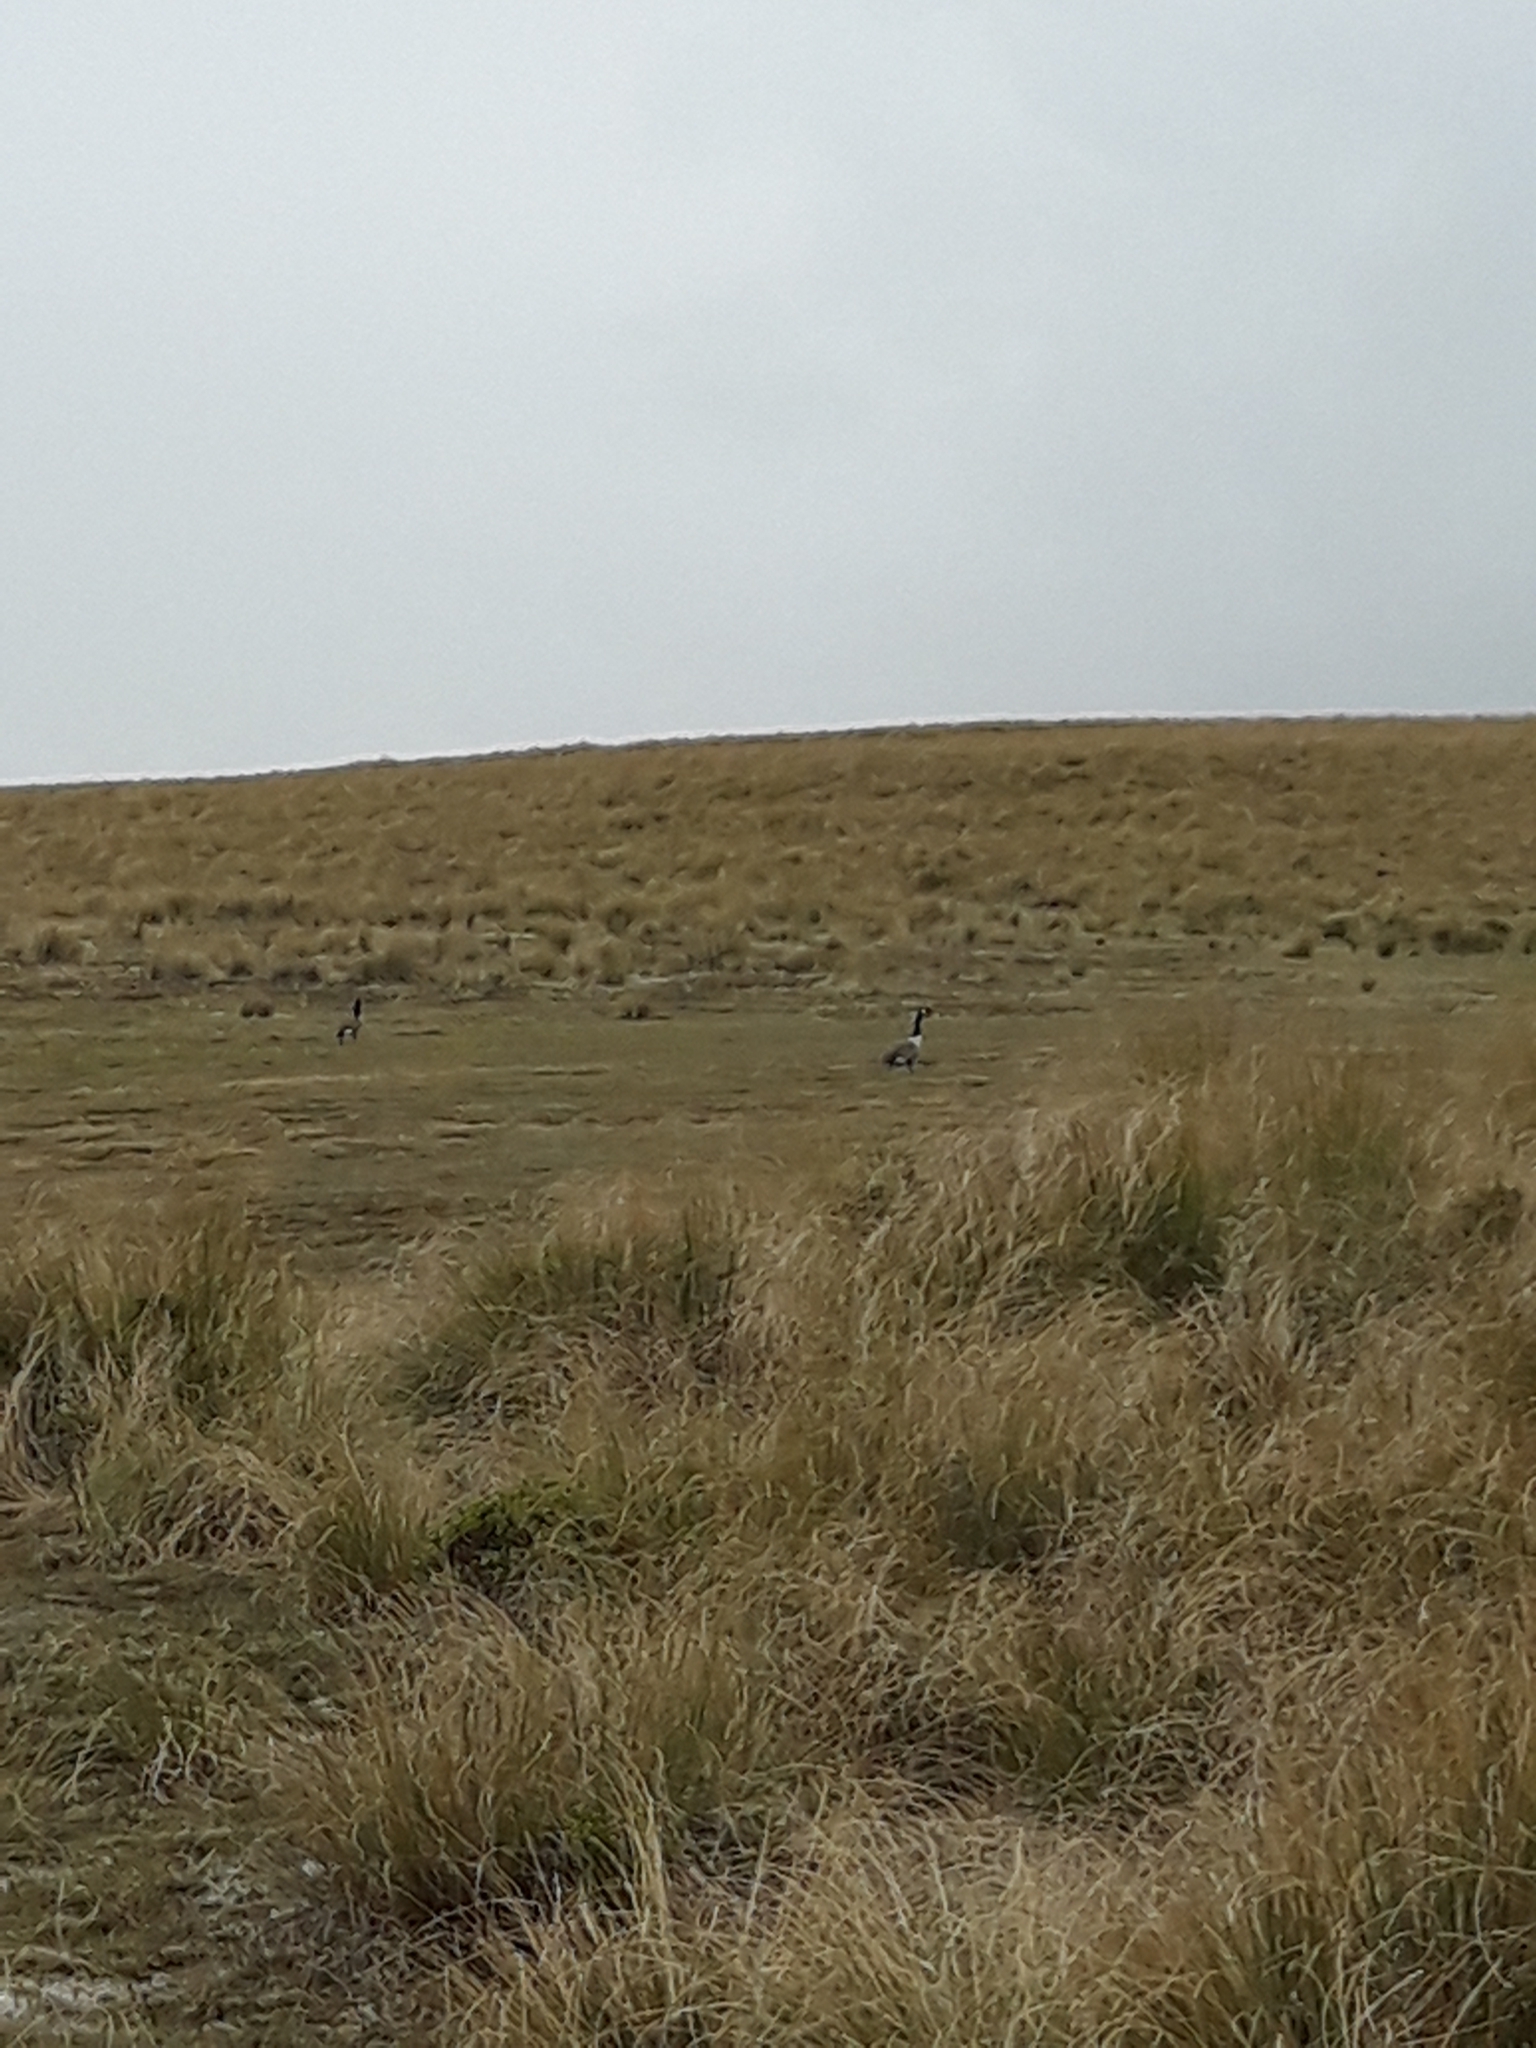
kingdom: Animalia
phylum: Chordata
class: Aves
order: Anseriformes
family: Anatidae
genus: Branta
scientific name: Branta canadensis
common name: Canada goose
